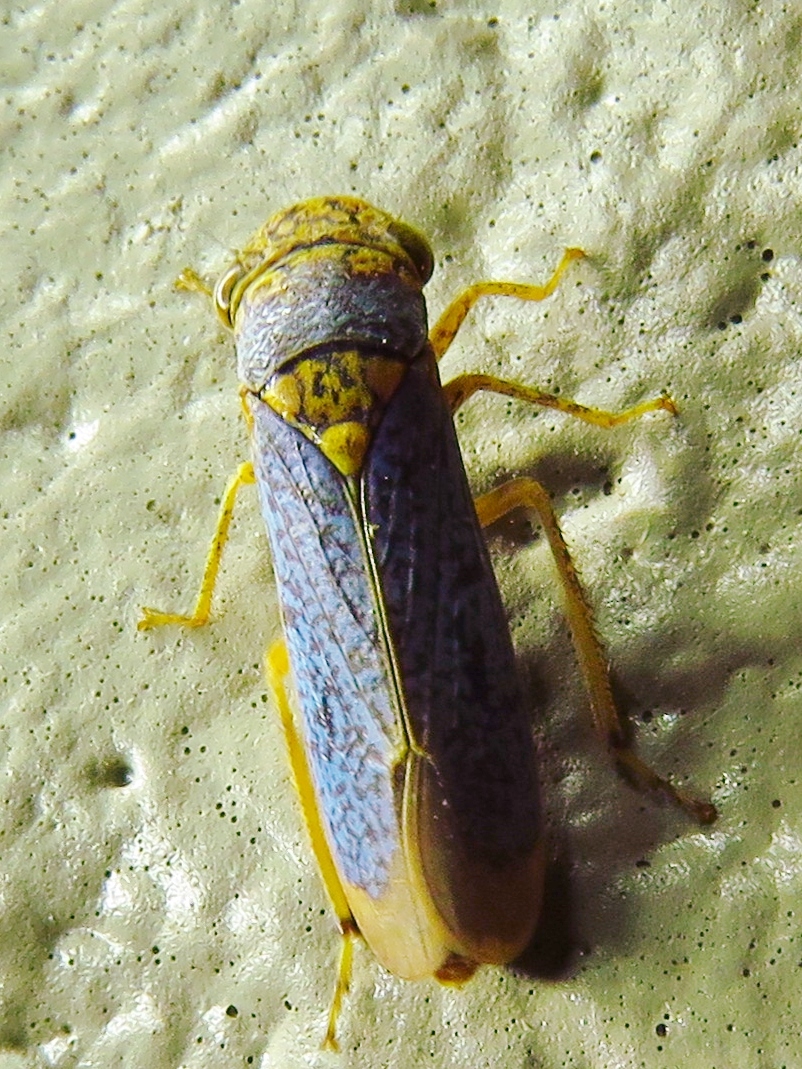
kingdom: Animalia
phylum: Arthropoda
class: Insecta
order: Hemiptera
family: Cicadellidae
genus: Oncometopia
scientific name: Oncometopia orbona
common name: Broad-headed sharpshooter
